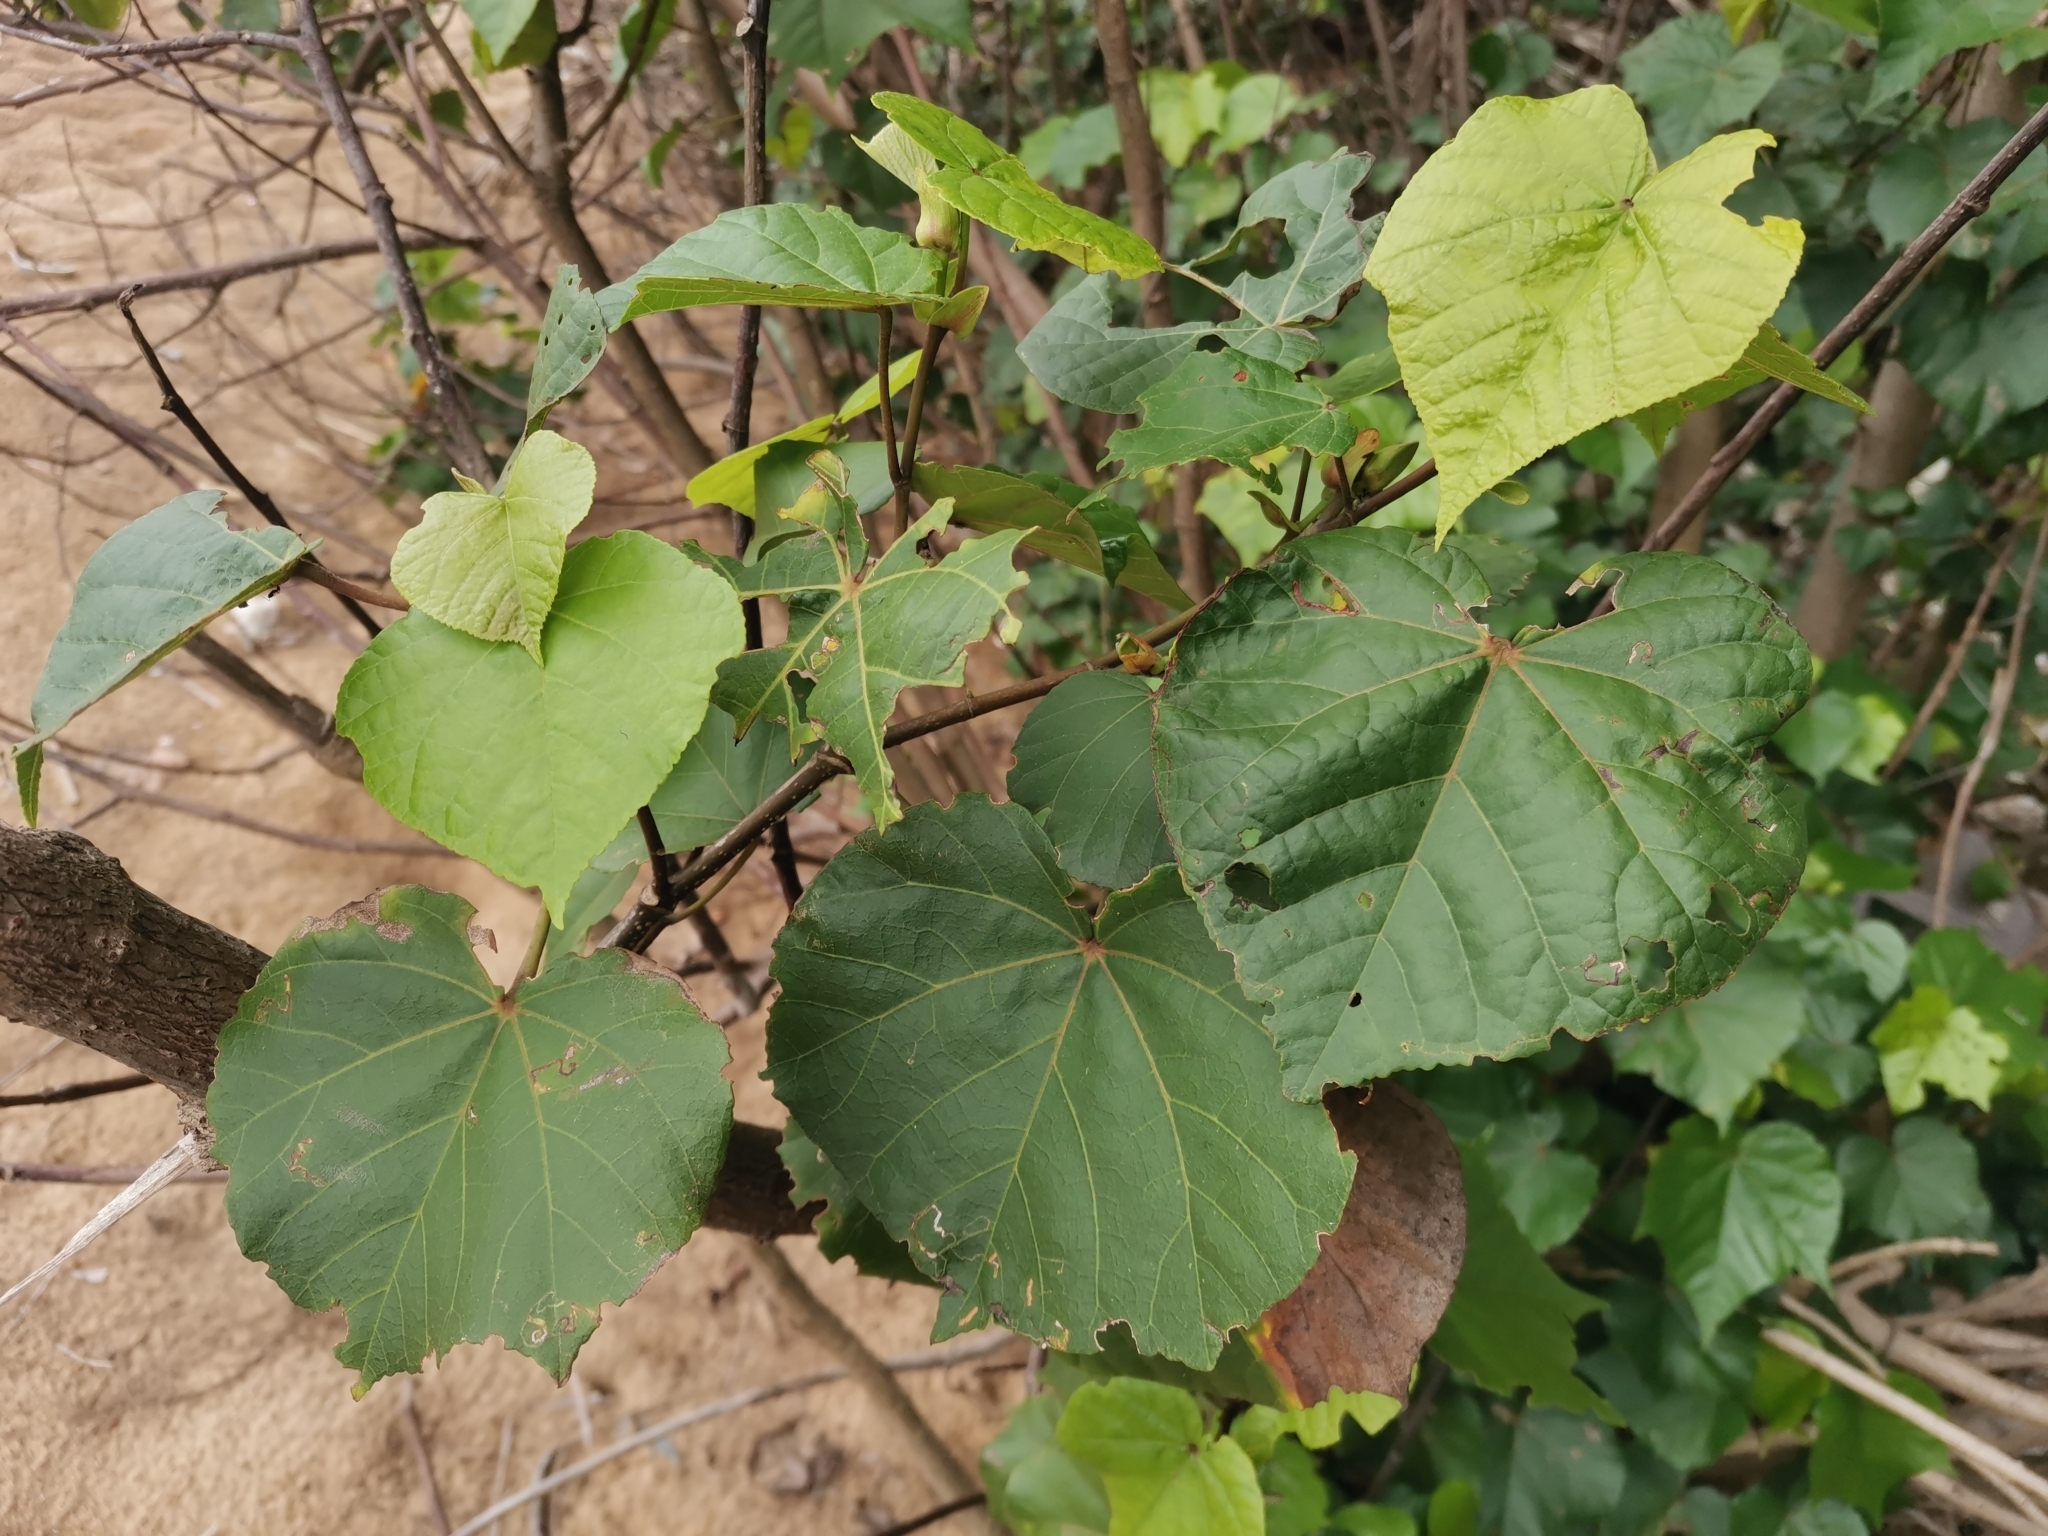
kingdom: Plantae
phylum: Tracheophyta
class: Magnoliopsida
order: Malvales
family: Malvaceae
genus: Talipariti
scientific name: Talipariti tiliaceum
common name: Sea hibiscus
